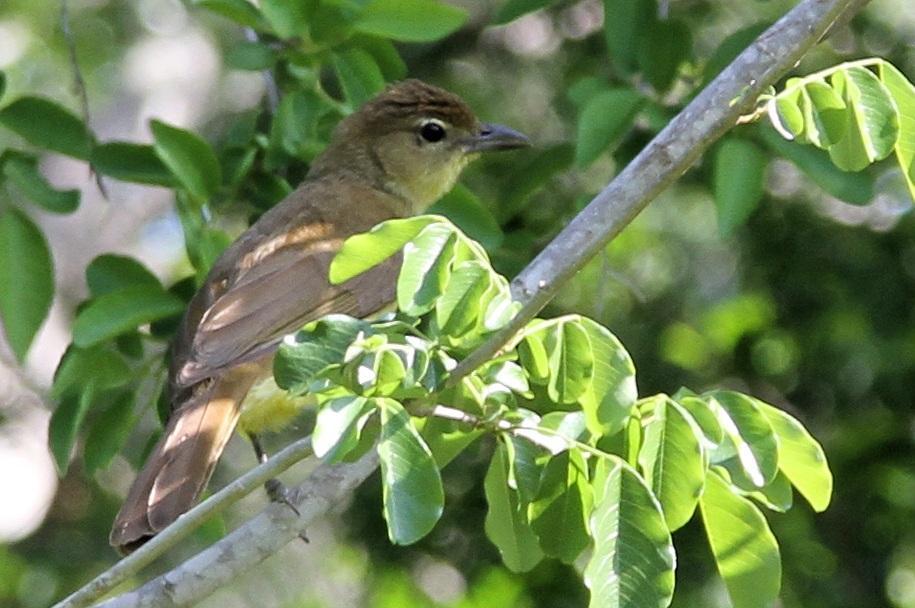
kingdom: Animalia
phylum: Chordata
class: Aves
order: Passeriformes
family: Pycnonotidae
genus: Chlorocichla
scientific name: Chlorocichla flaviventris
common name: Yellow-bellied greenbul
